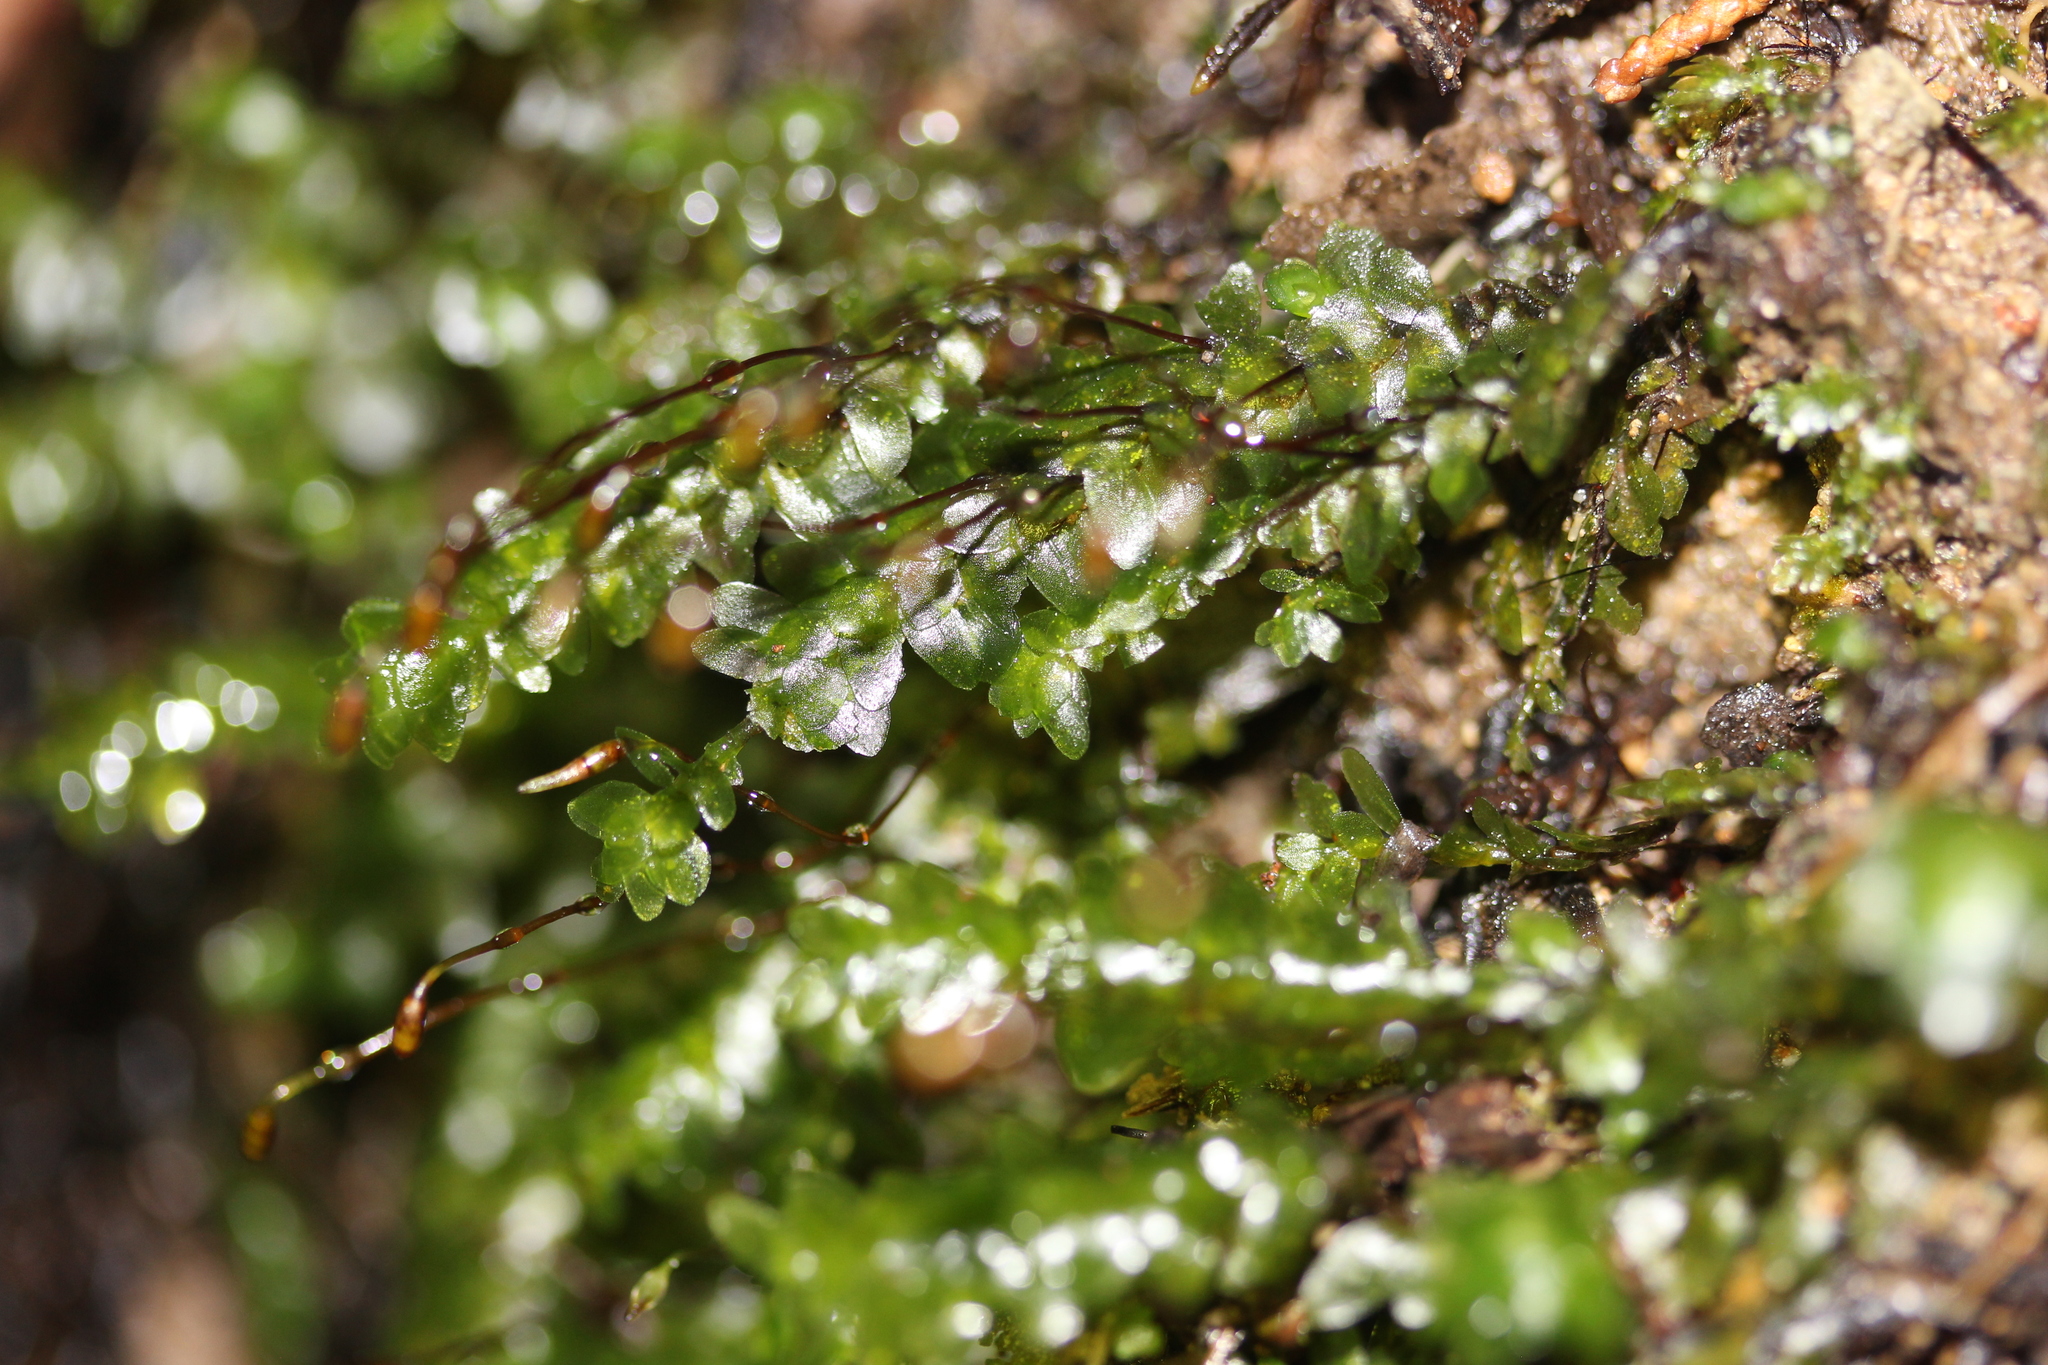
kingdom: Plantae
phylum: Bryophyta
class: Bryopsida
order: Hookeriales
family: Daltoniaceae
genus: Achrophyllum
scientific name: Achrophyllum dentatum
